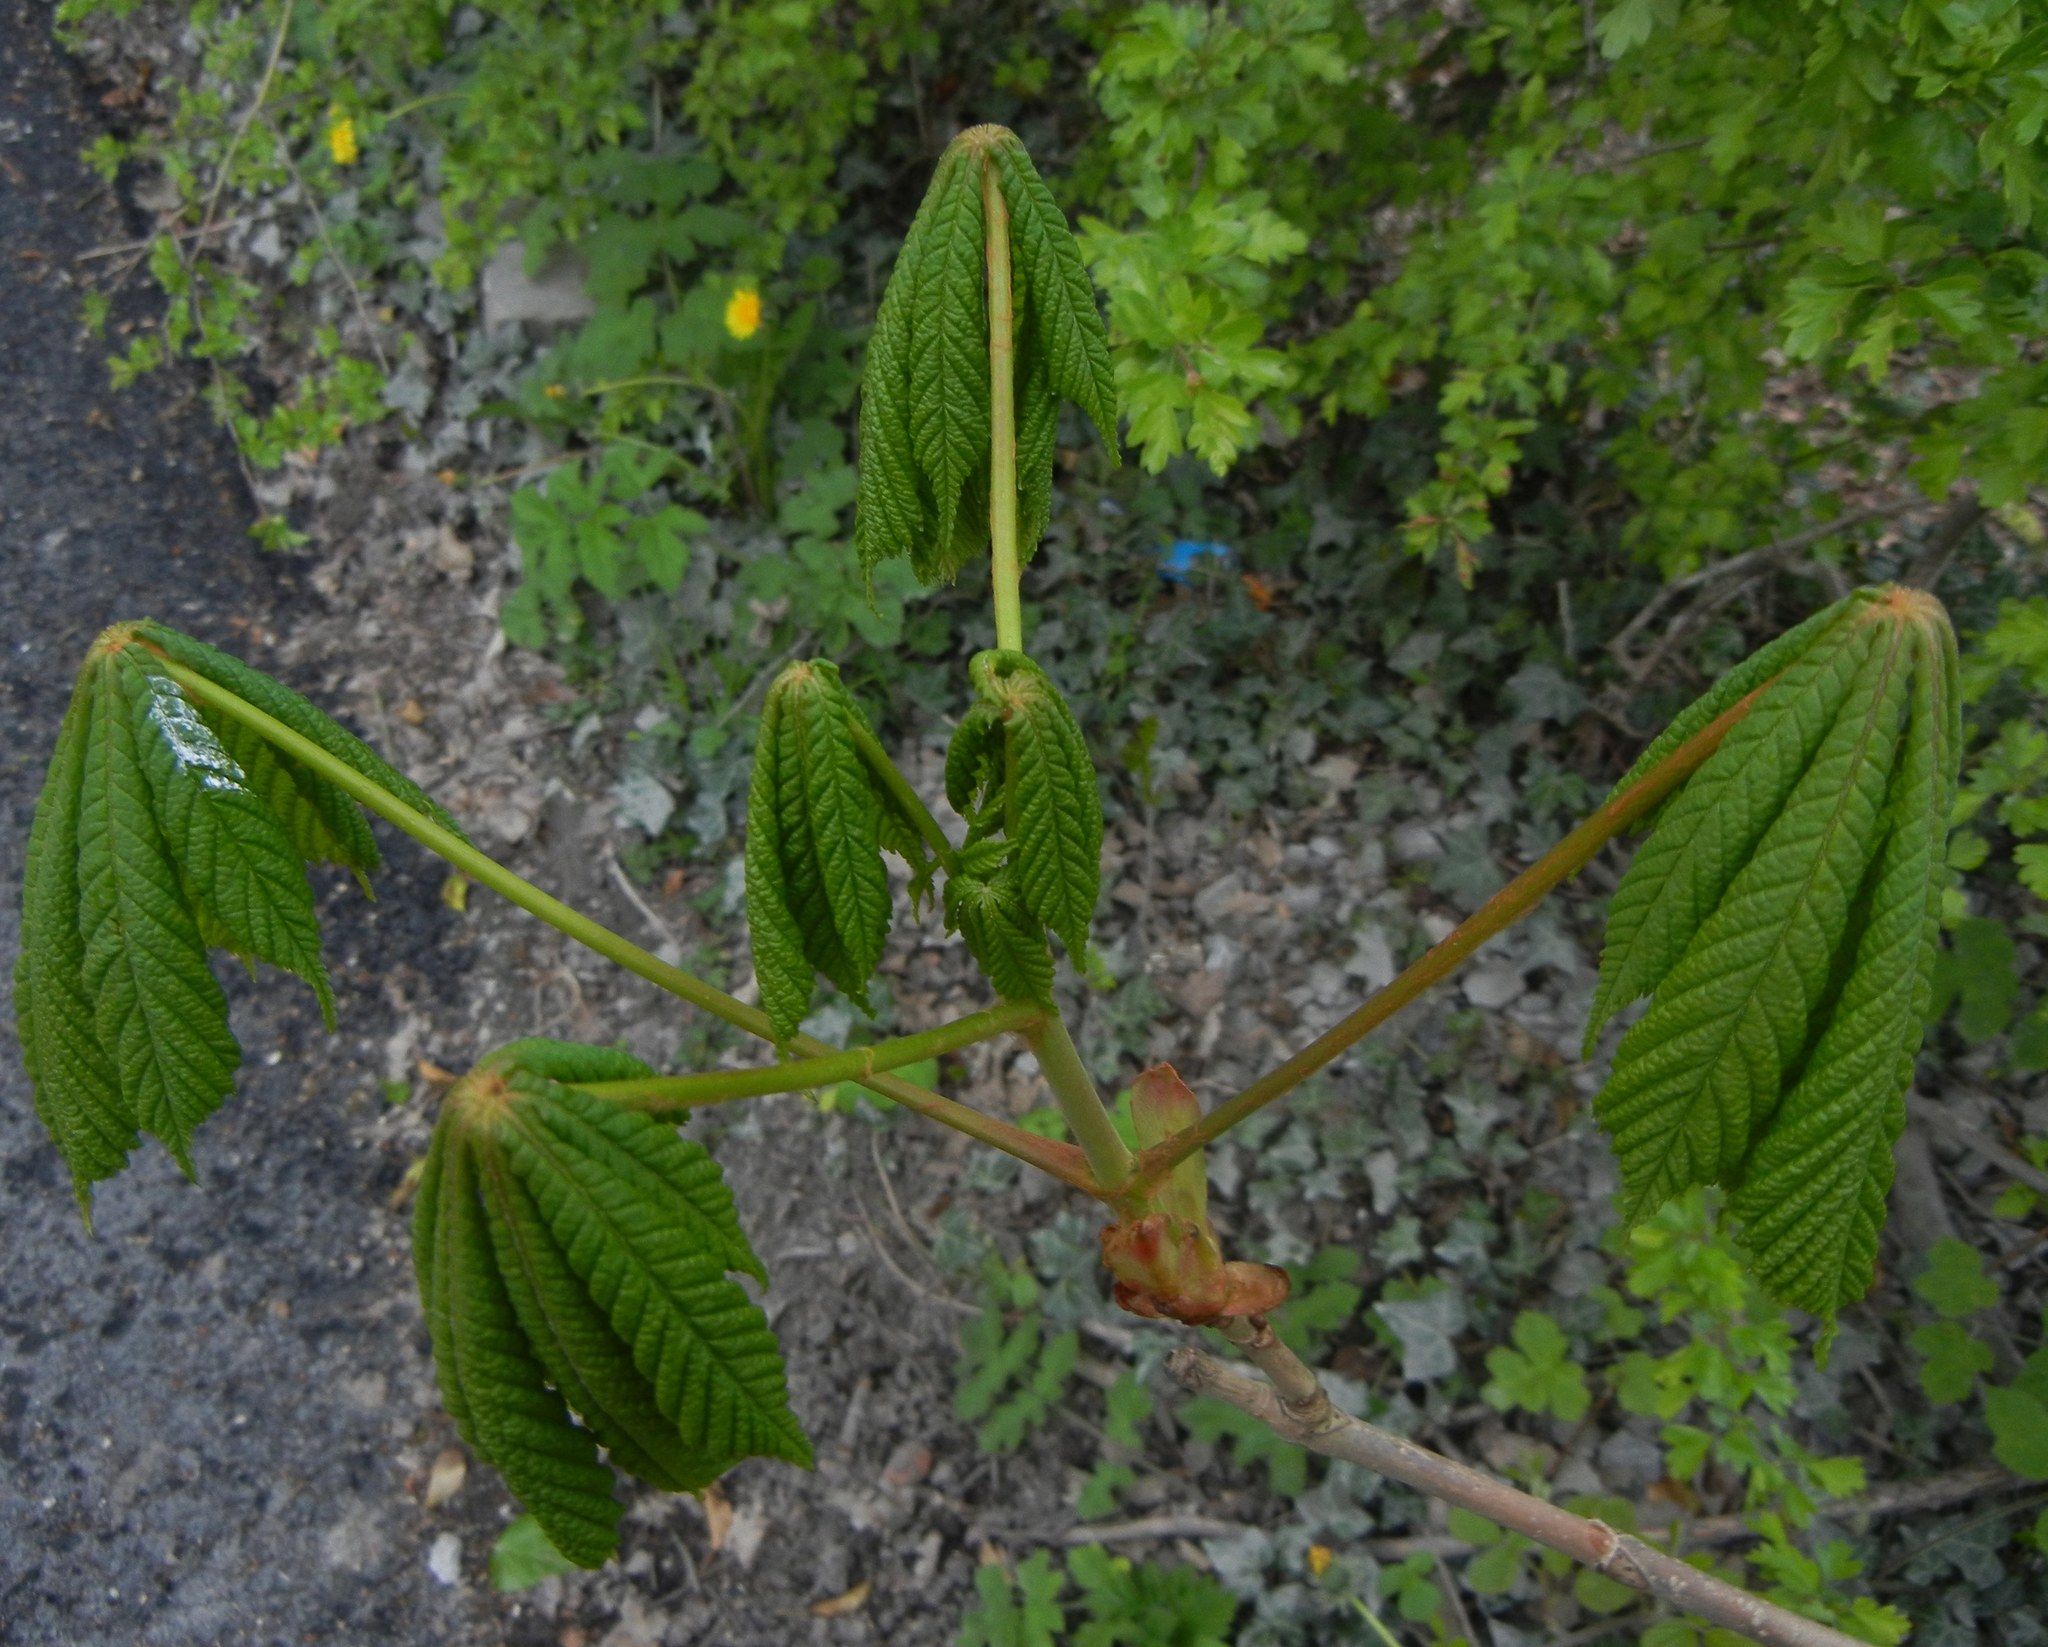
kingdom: Plantae
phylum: Tracheophyta
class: Magnoliopsida
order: Sapindales
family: Sapindaceae
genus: Aesculus
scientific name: Aesculus hippocastanum
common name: Horse-chestnut
